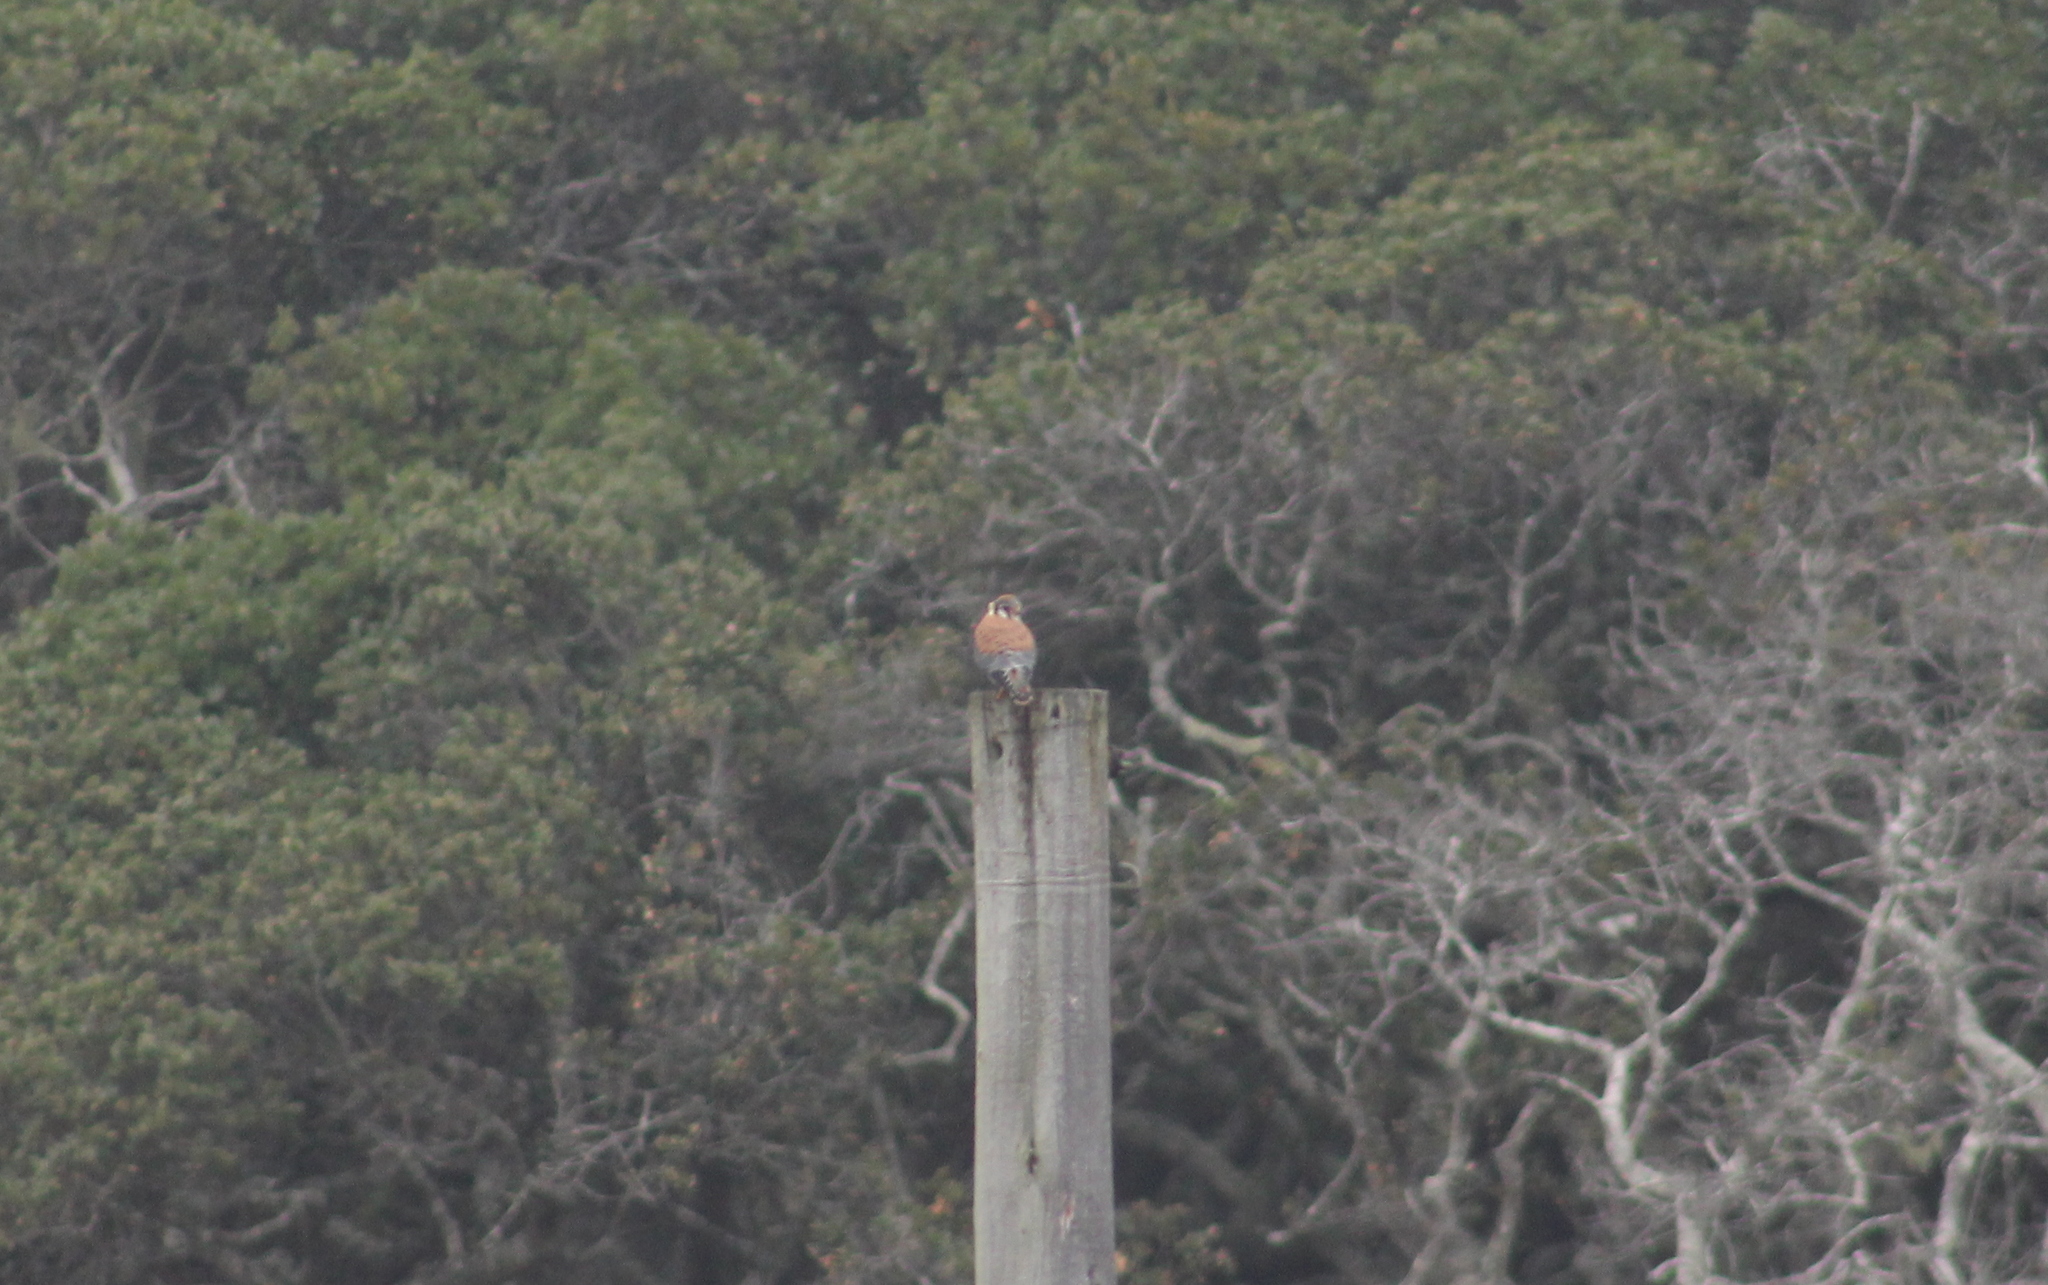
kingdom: Animalia
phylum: Chordata
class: Aves
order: Falconiformes
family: Falconidae
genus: Falco
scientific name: Falco sparverius
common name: American kestrel
